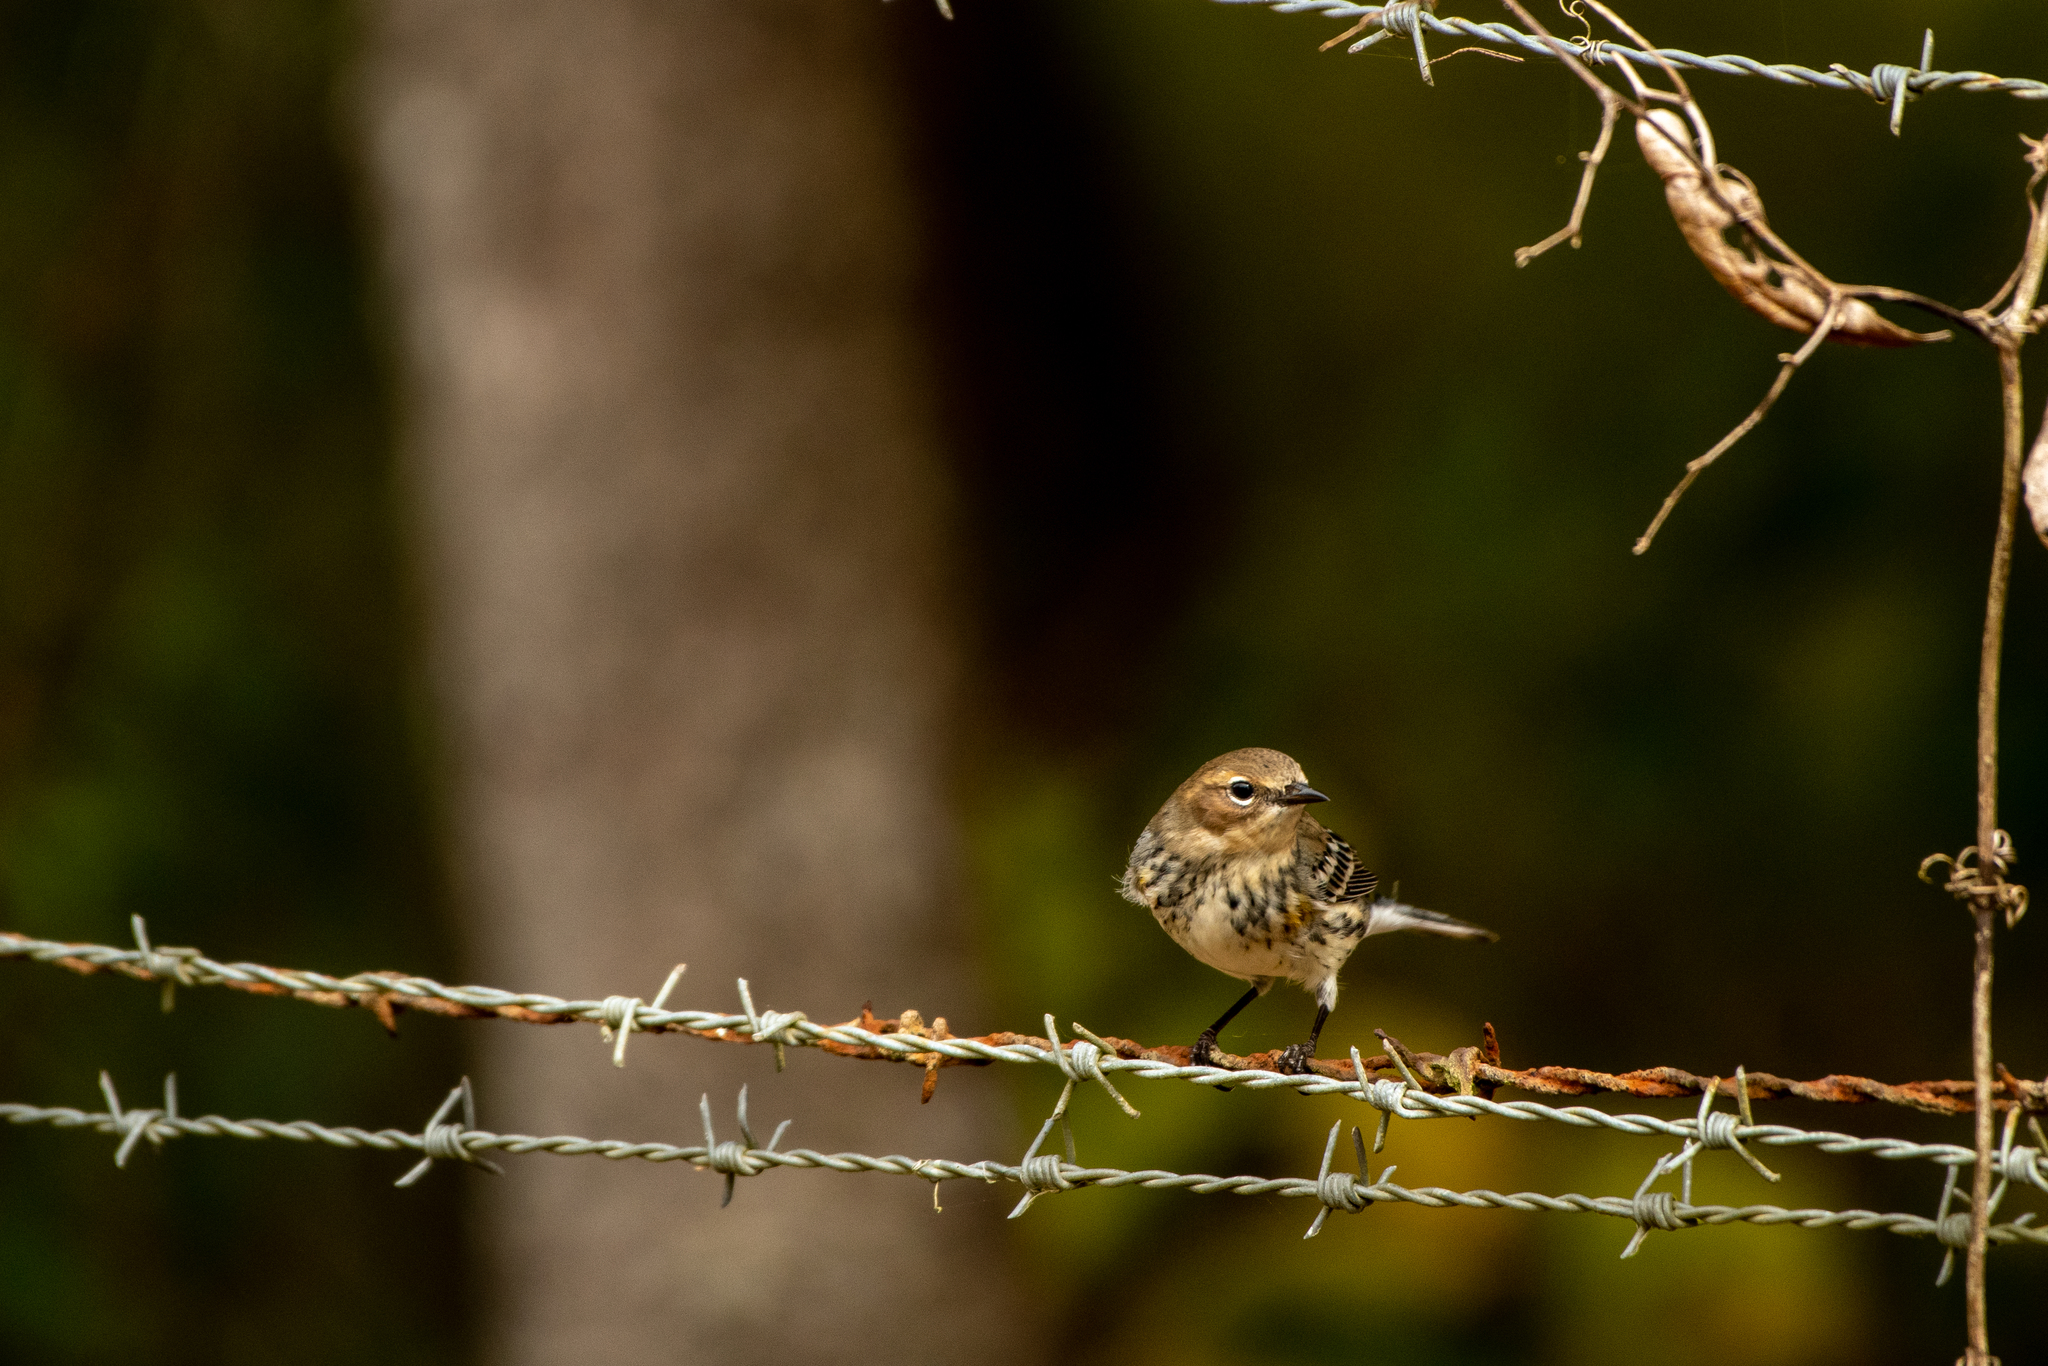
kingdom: Animalia
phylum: Chordata
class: Aves
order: Passeriformes
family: Parulidae
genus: Setophaga
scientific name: Setophaga coronata
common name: Myrtle warbler
